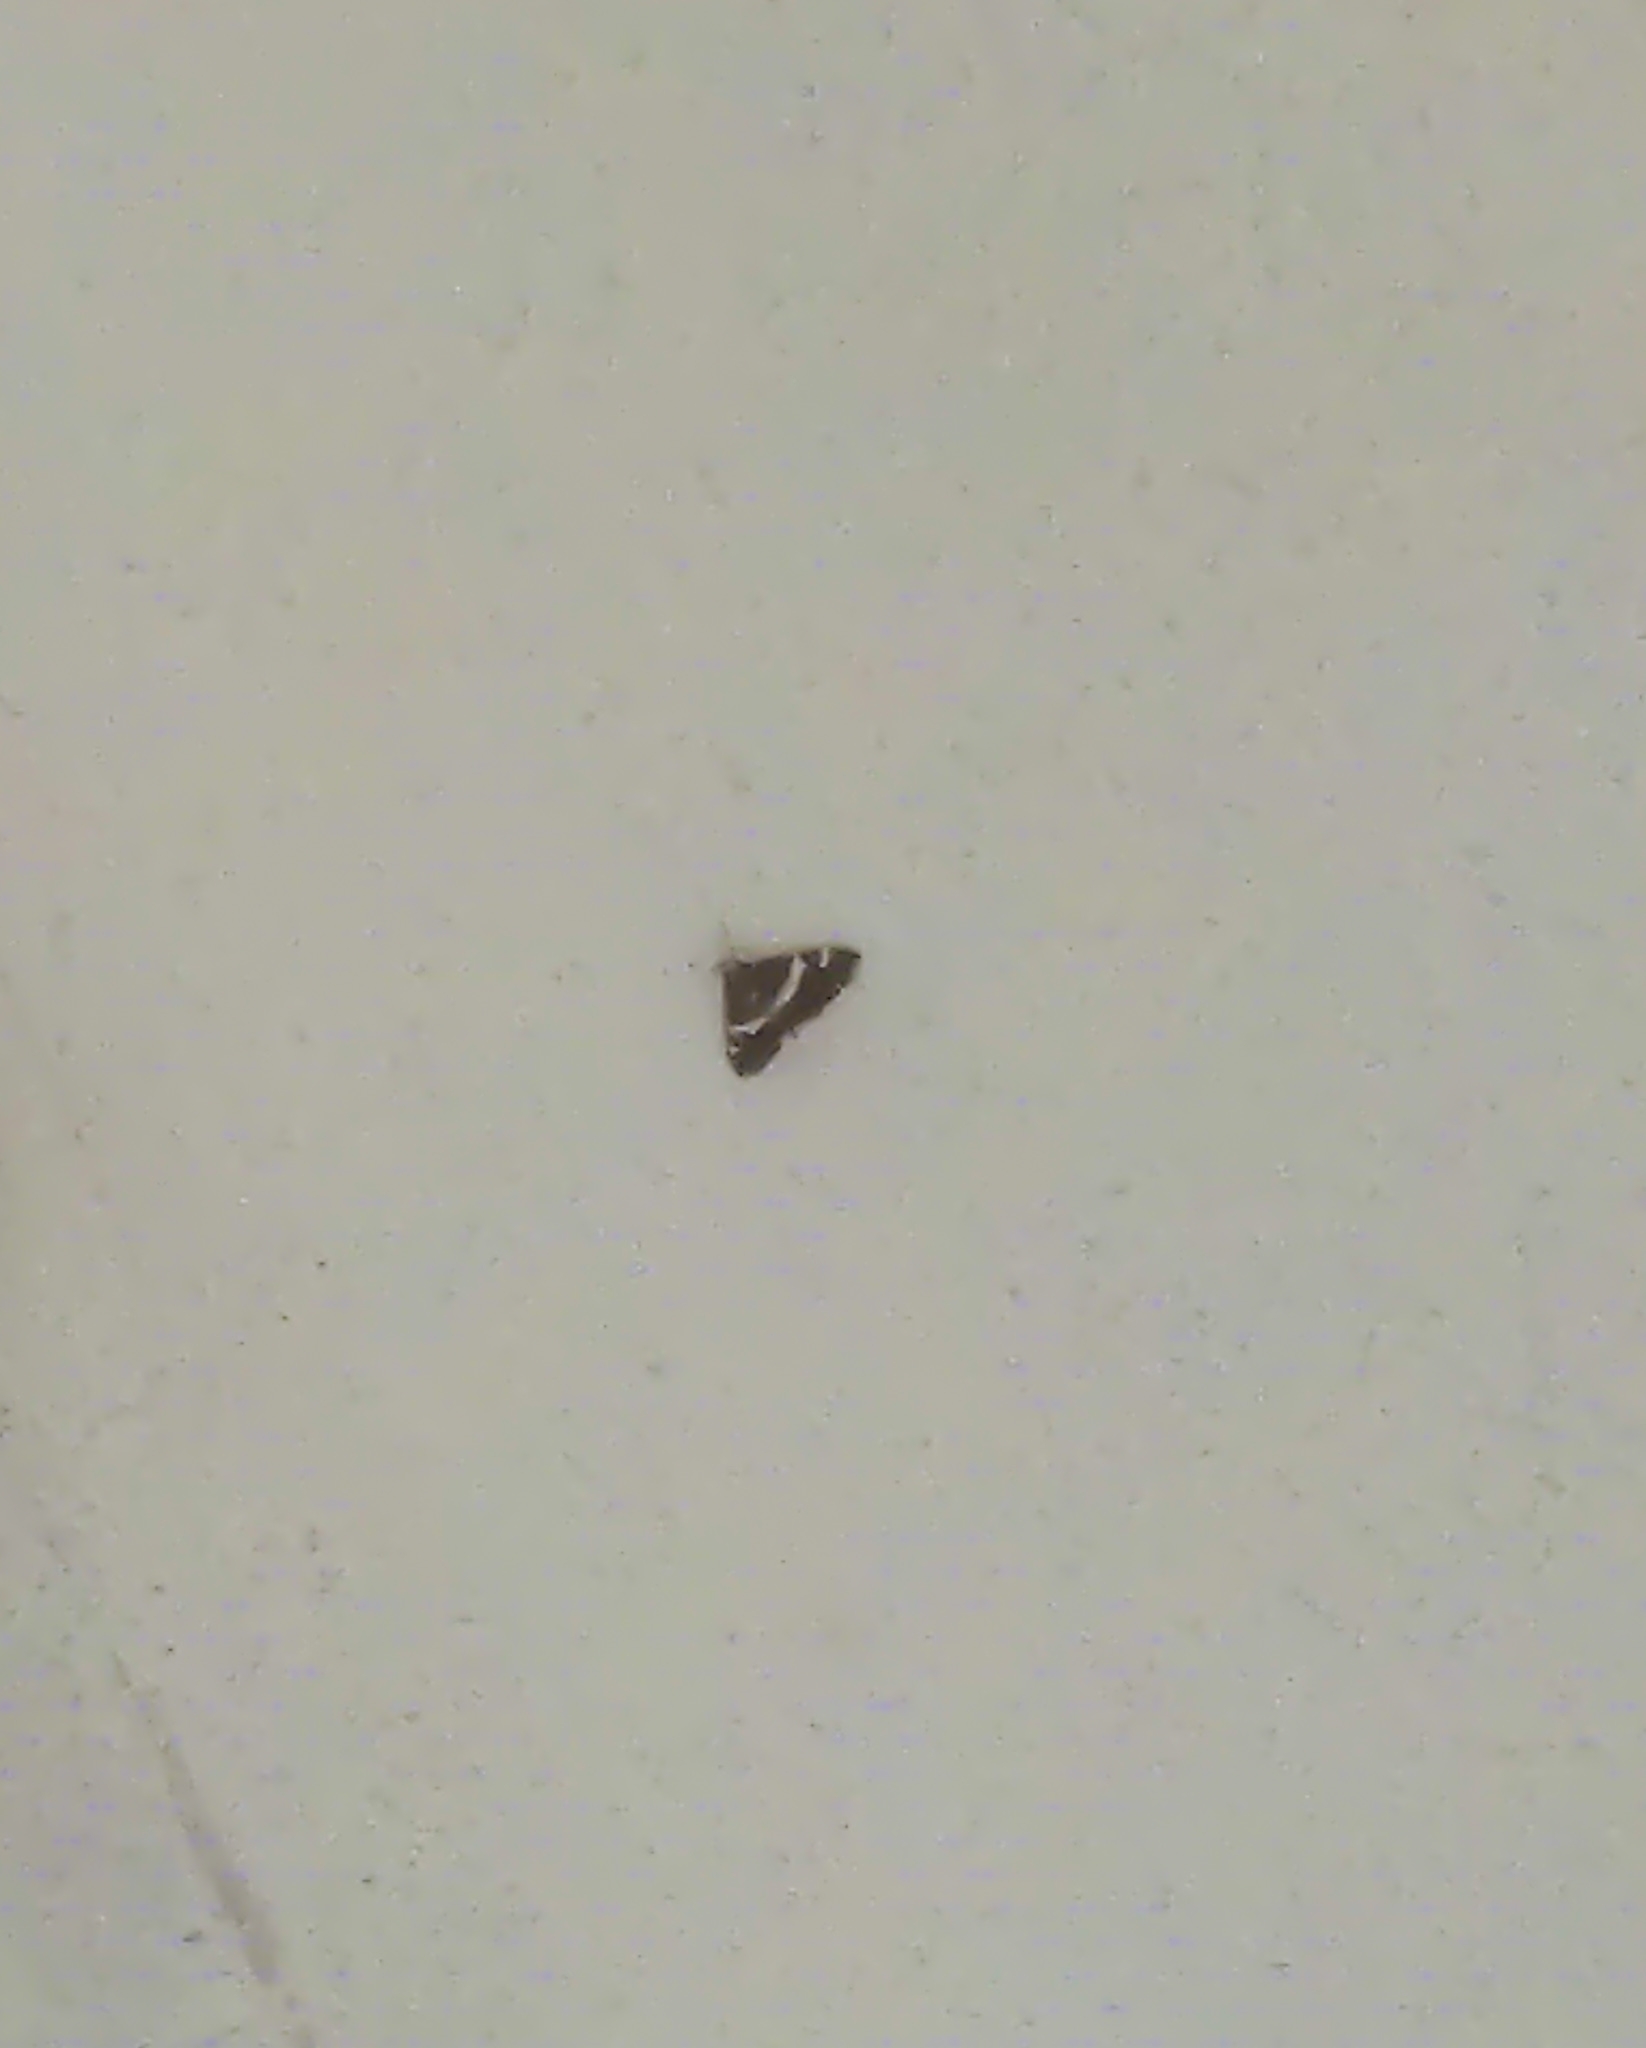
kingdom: Animalia
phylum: Arthropoda
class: Insecta
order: Lepidoptera
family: Crambidae
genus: Spoladea
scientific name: Spoladea recurvalis
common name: Beet webworm moth
